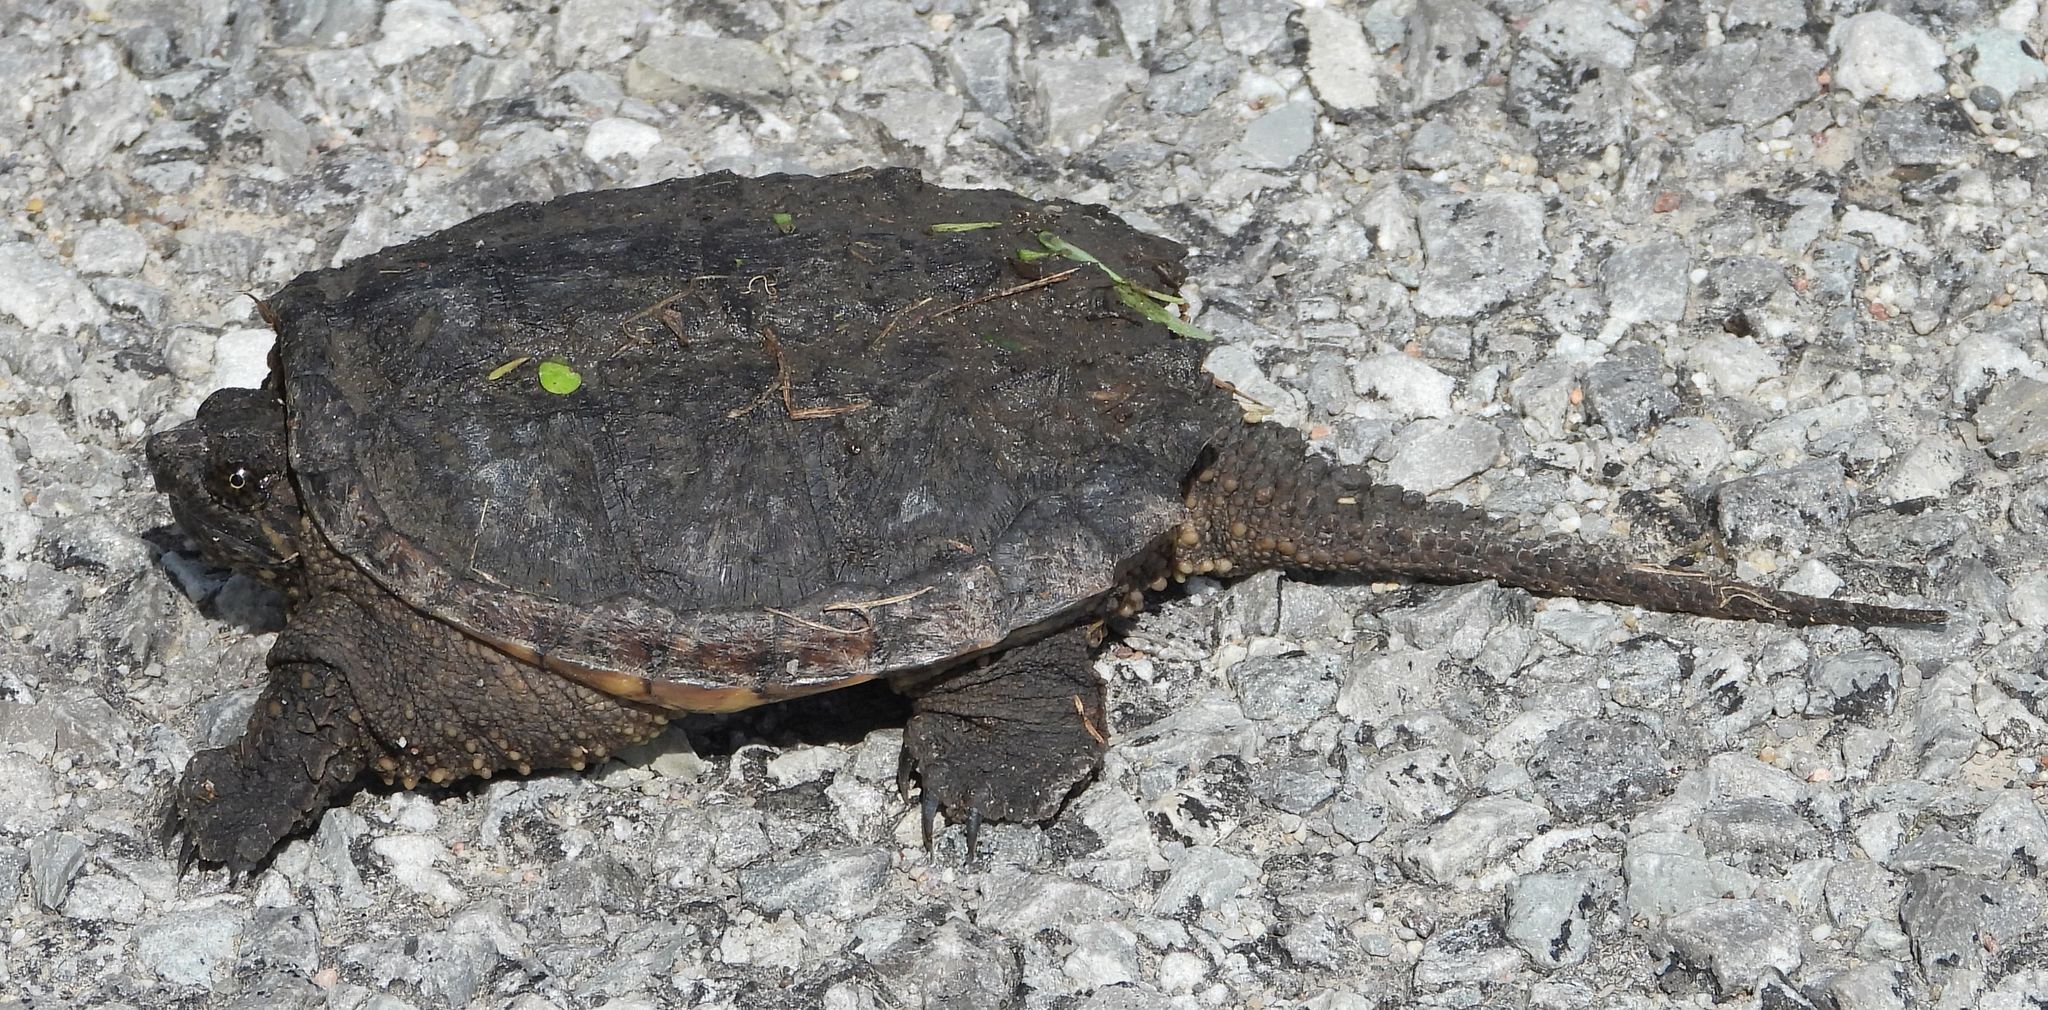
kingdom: Animalia
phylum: Chordata
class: Testudines
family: Chelydridae
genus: Chelydra
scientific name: Chelydra serpentina
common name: Common snapping turtle
